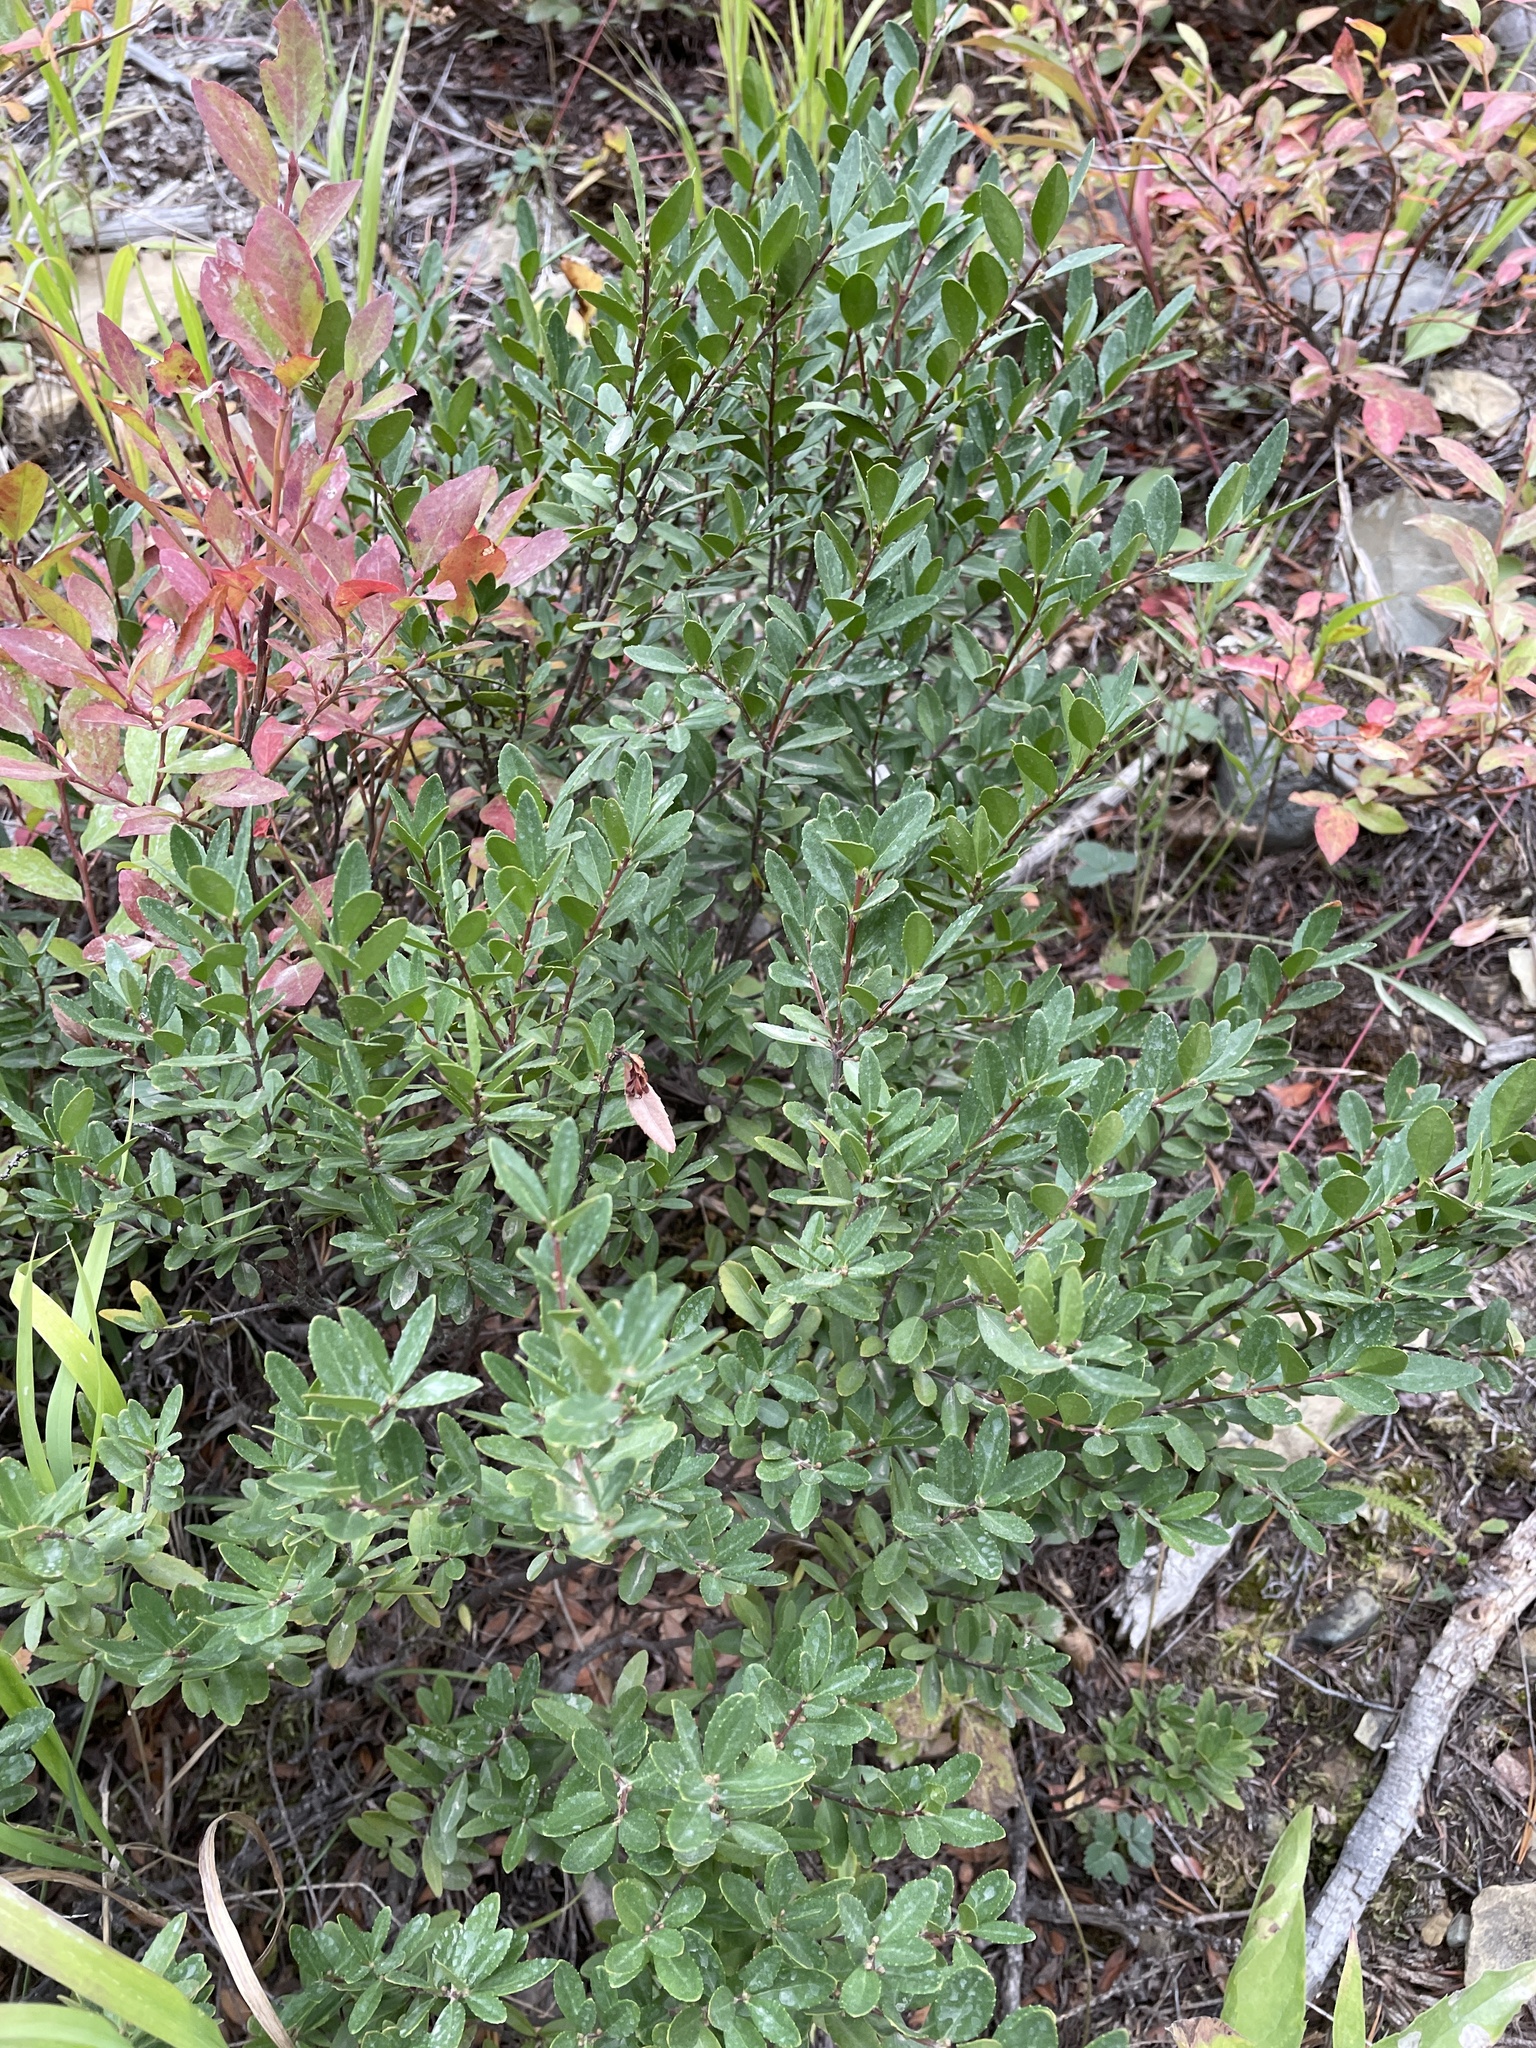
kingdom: Plantae
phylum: Tracheophyta
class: Magnoliopsida
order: Celastrales
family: Celastraceae
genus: Paxistima
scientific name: Paxistima myrsinites
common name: Mountain-lover
